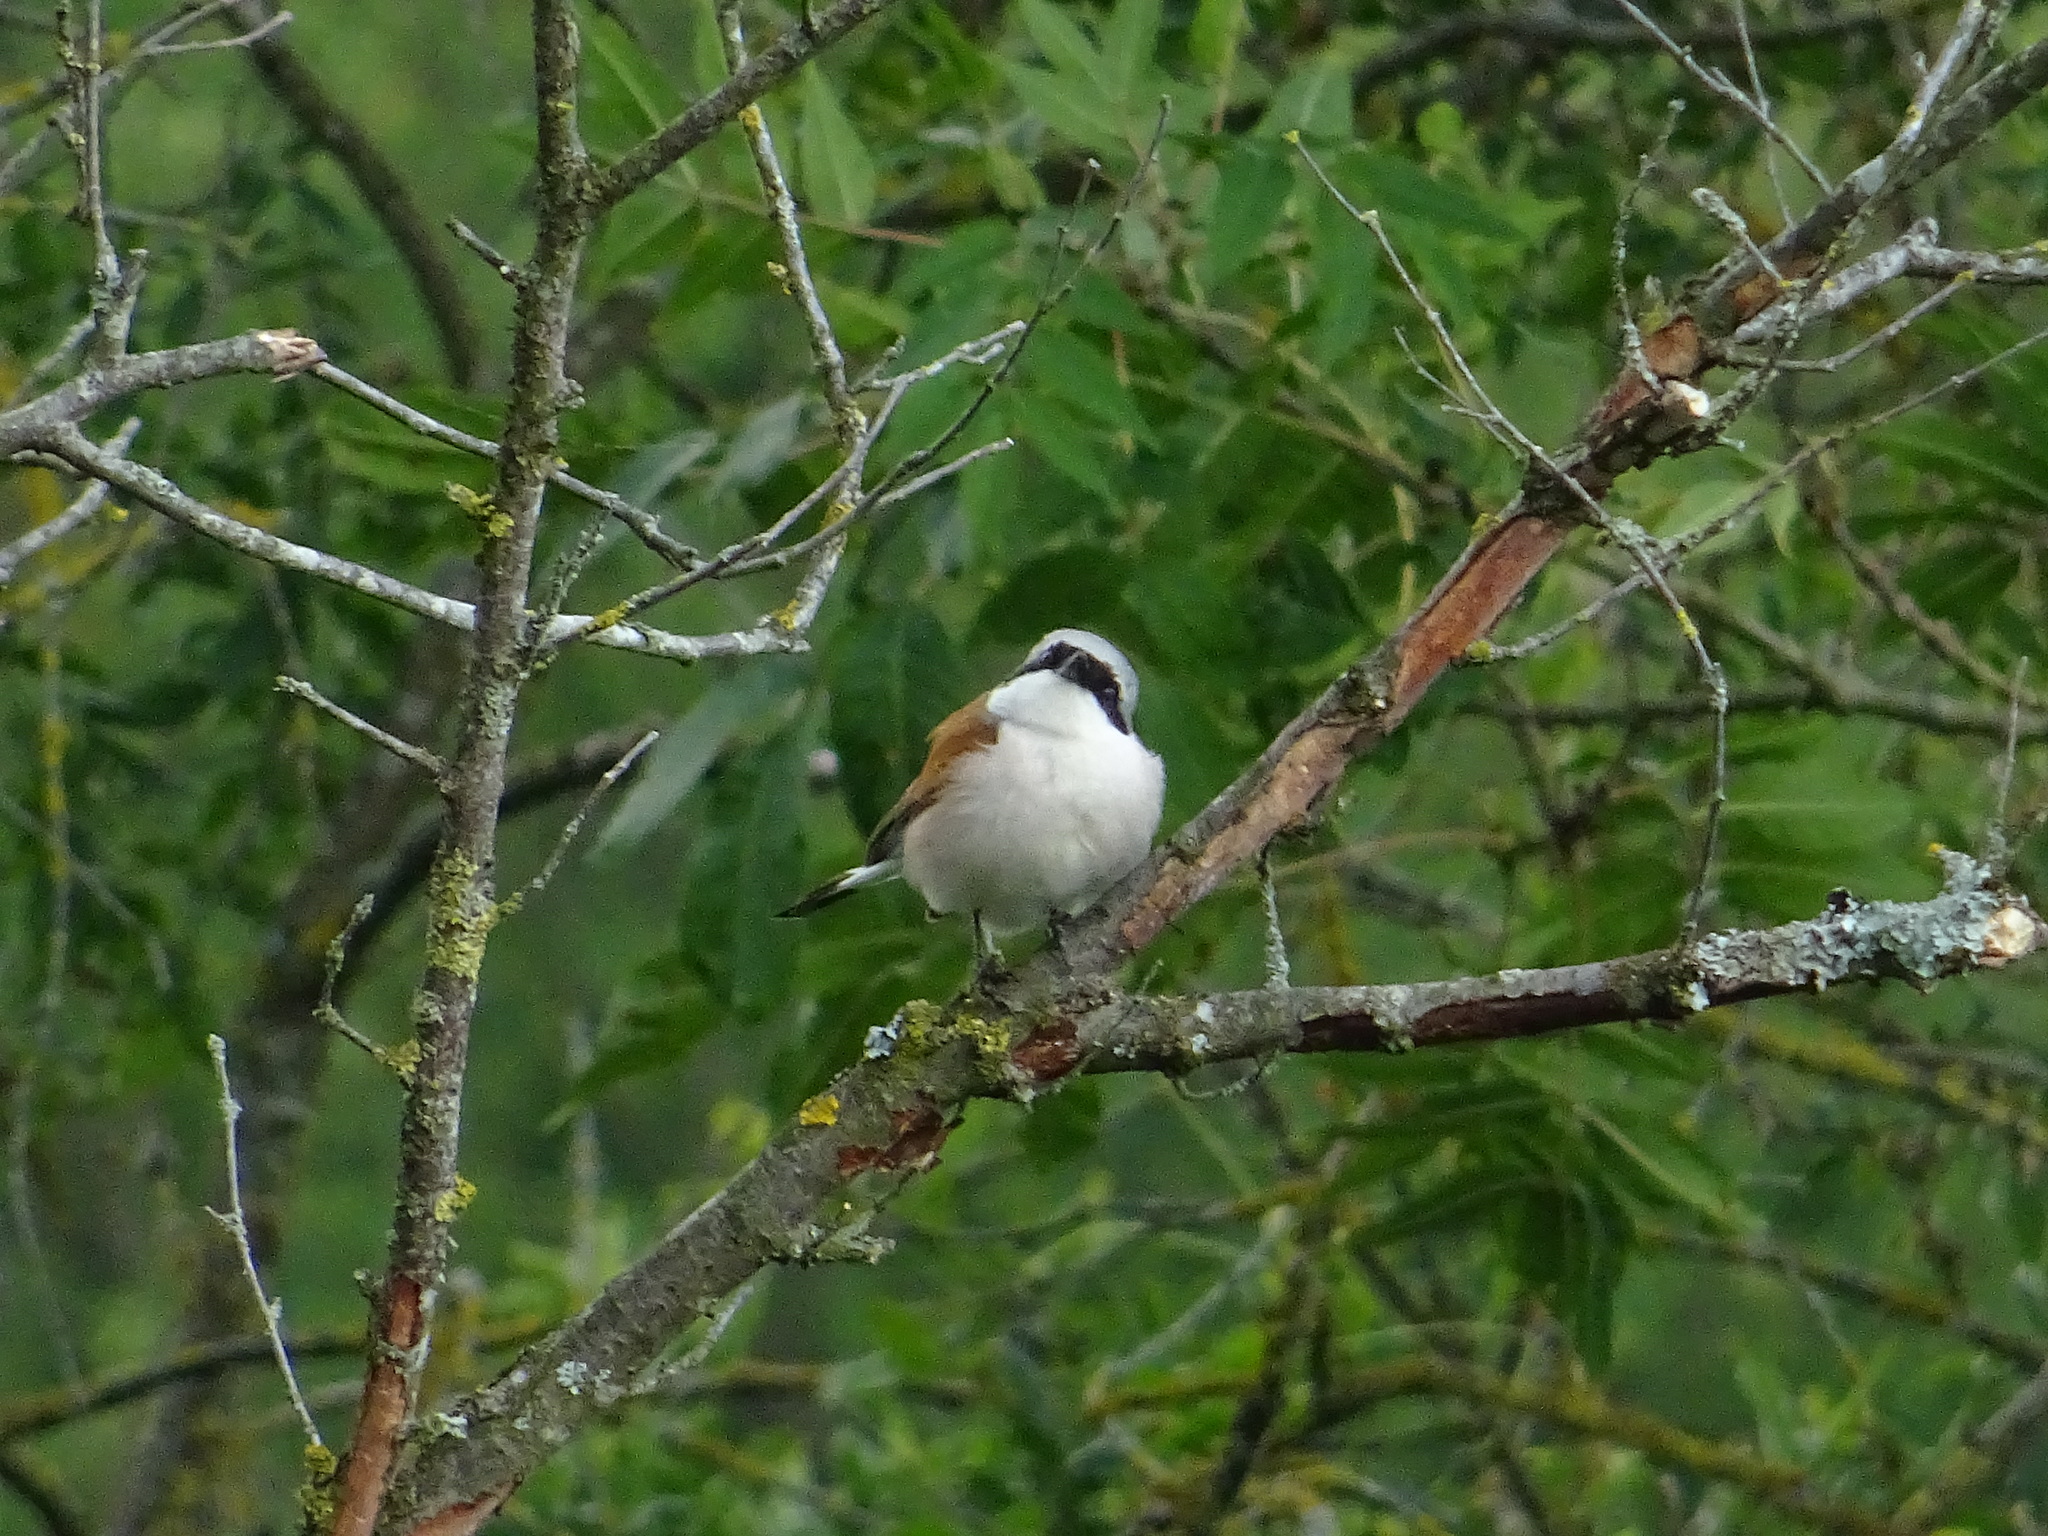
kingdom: Animalia
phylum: Chordata
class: Aves
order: Passeriformes
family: Laniidae
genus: Lanius
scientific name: Lanius collurio
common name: Red-backed shrike
